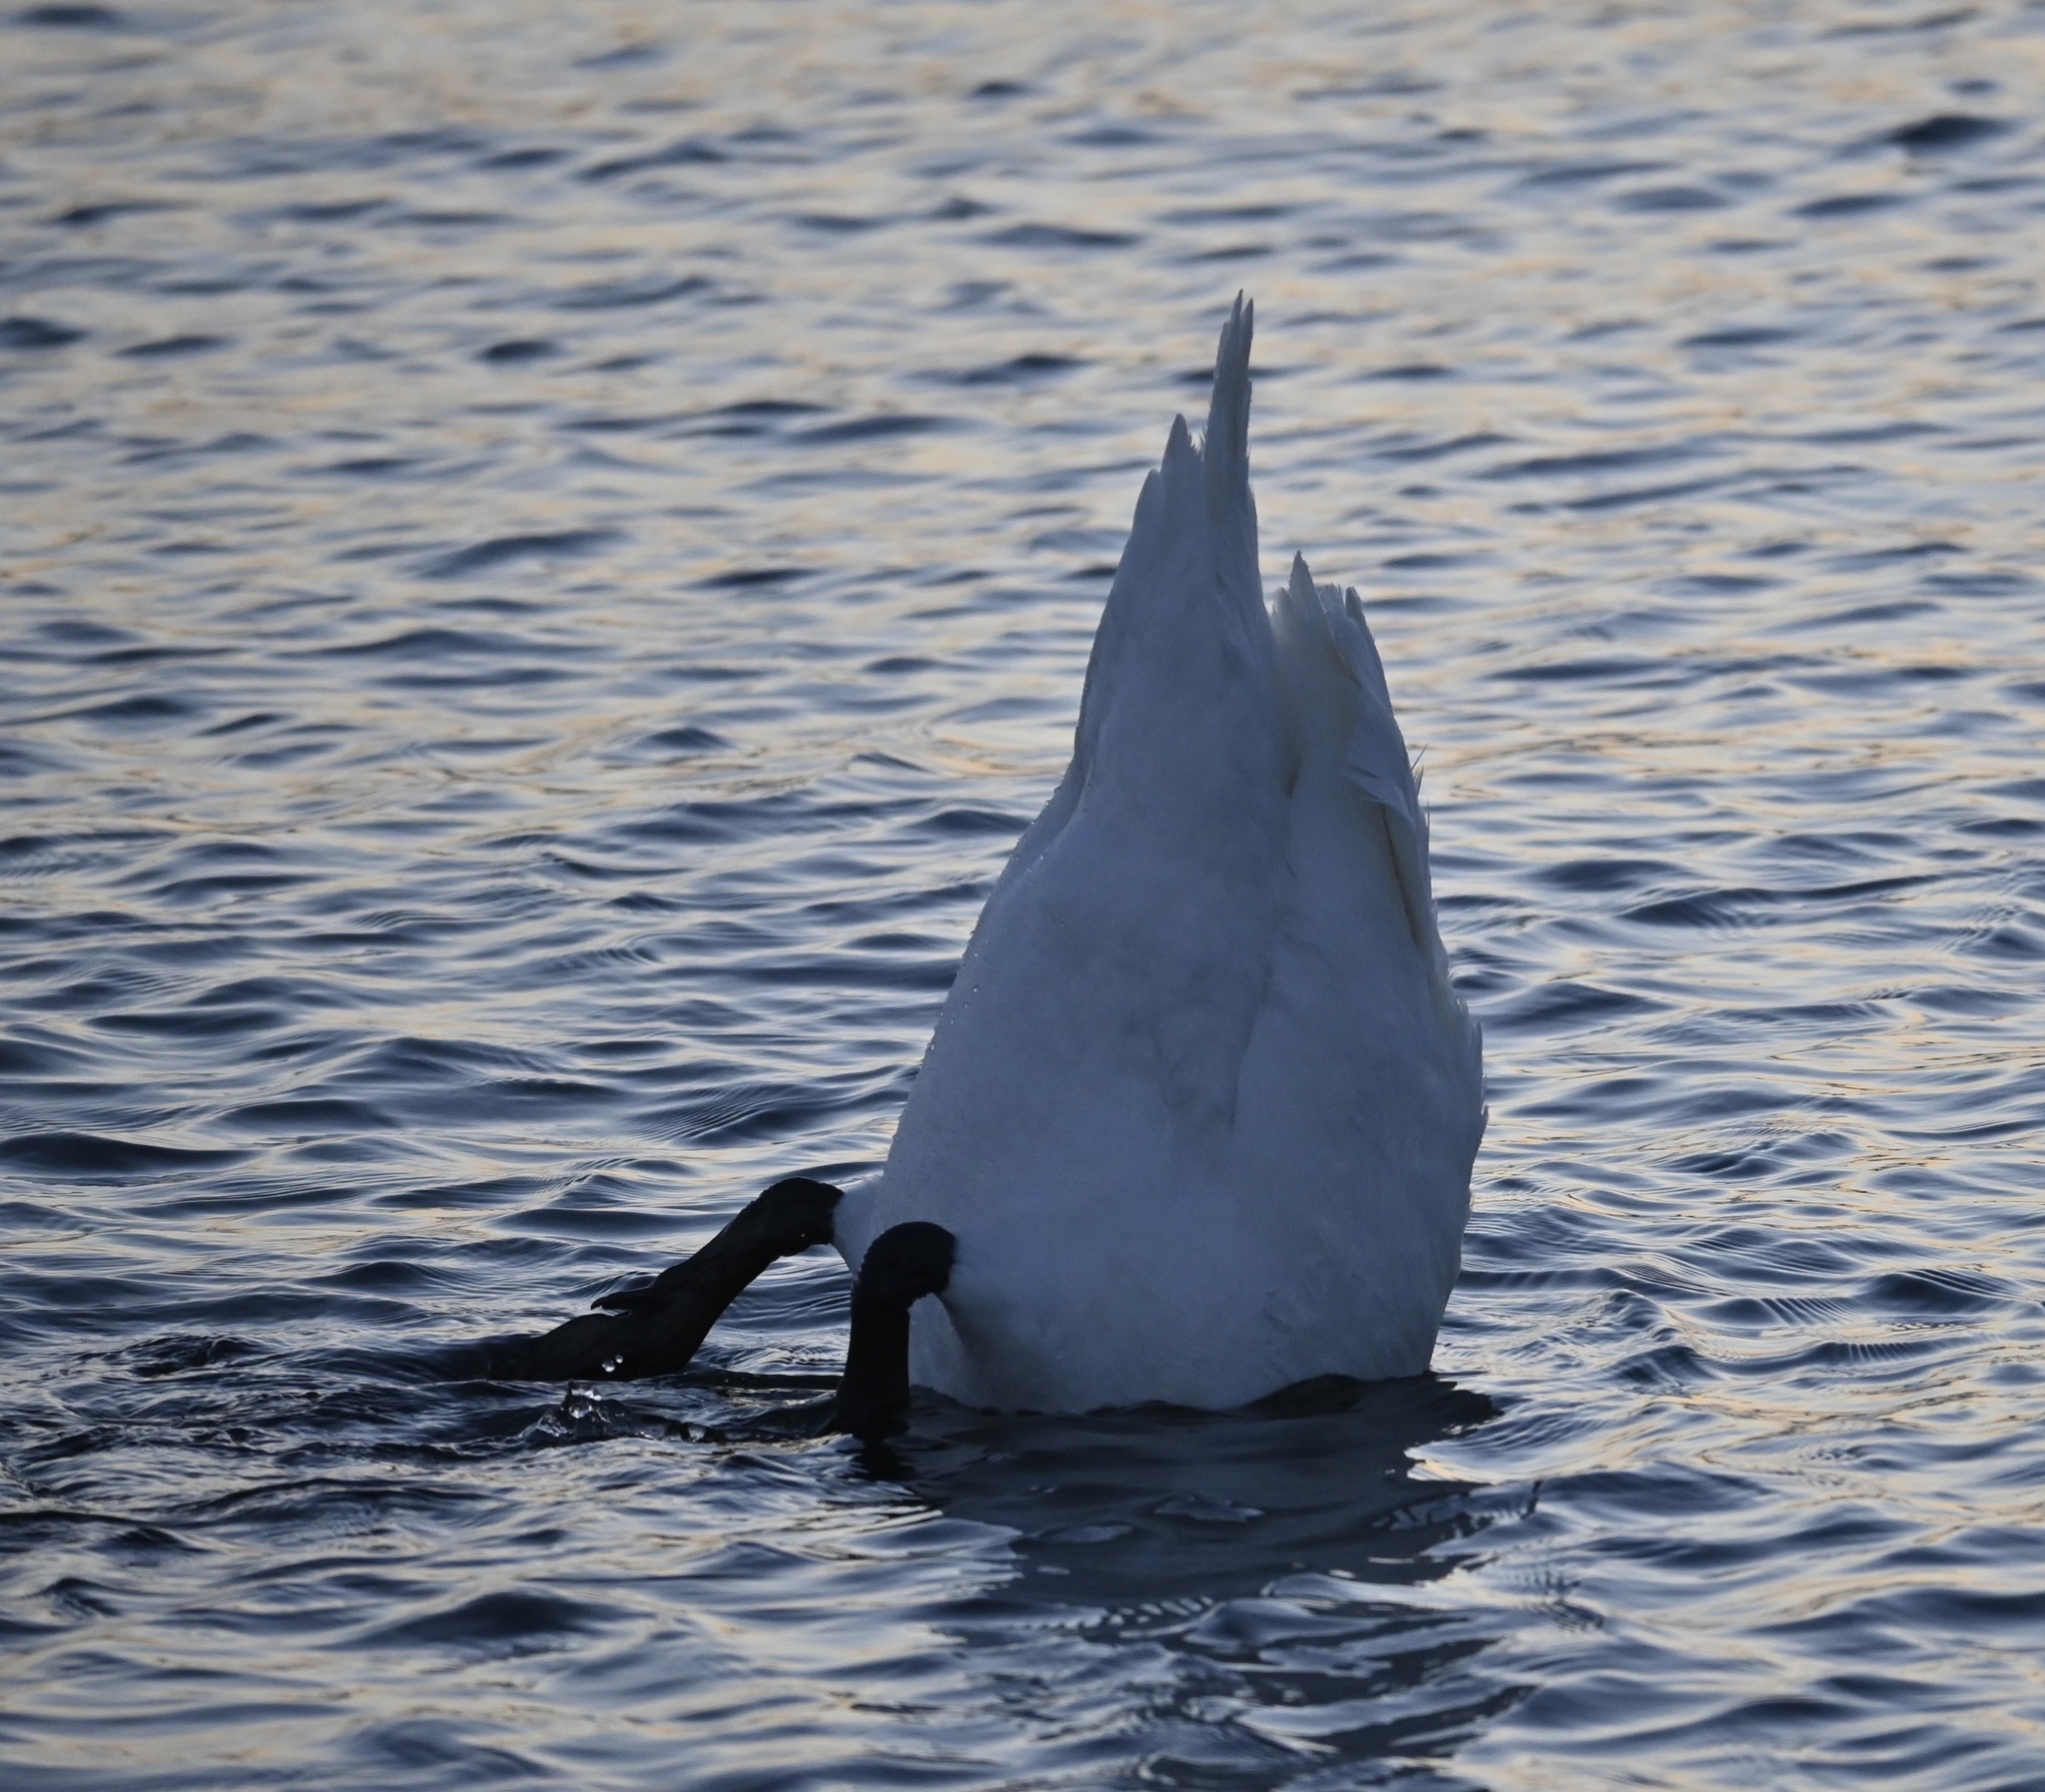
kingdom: Animalia
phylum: Chordata
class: Aves
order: Anseriformes
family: Anatidae
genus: Cygnus
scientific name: Cygnus olor
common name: Mute swan
